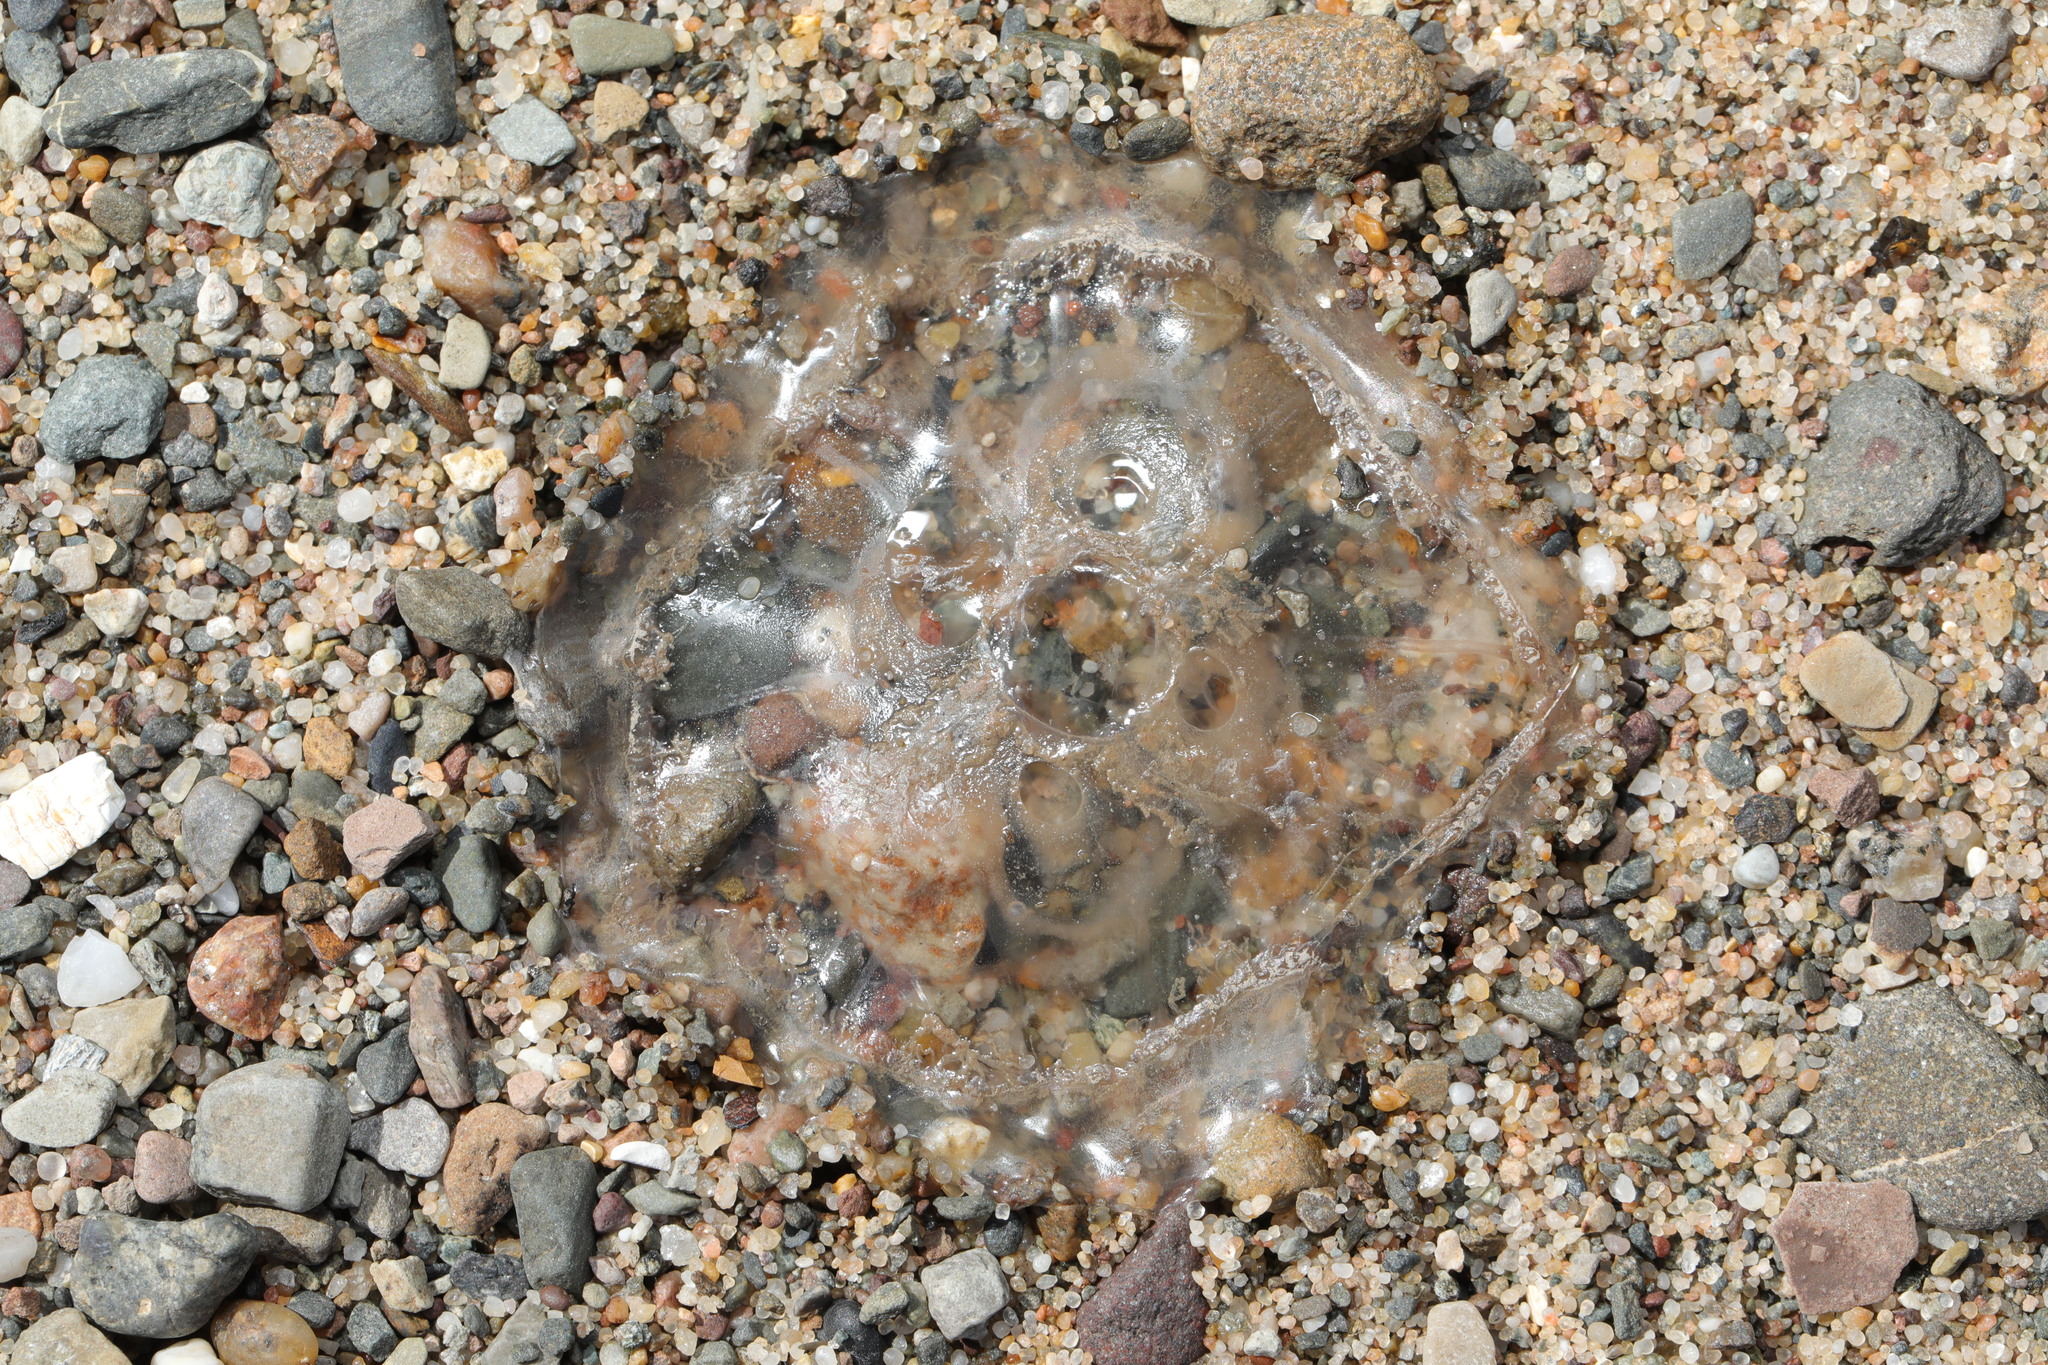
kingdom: Animalia
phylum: Cnidaria
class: Scyphozoa
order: Semaeostomeae
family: Ulmaridae
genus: Aurelia
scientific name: Aurelia aurita
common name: Moon jellyfish
